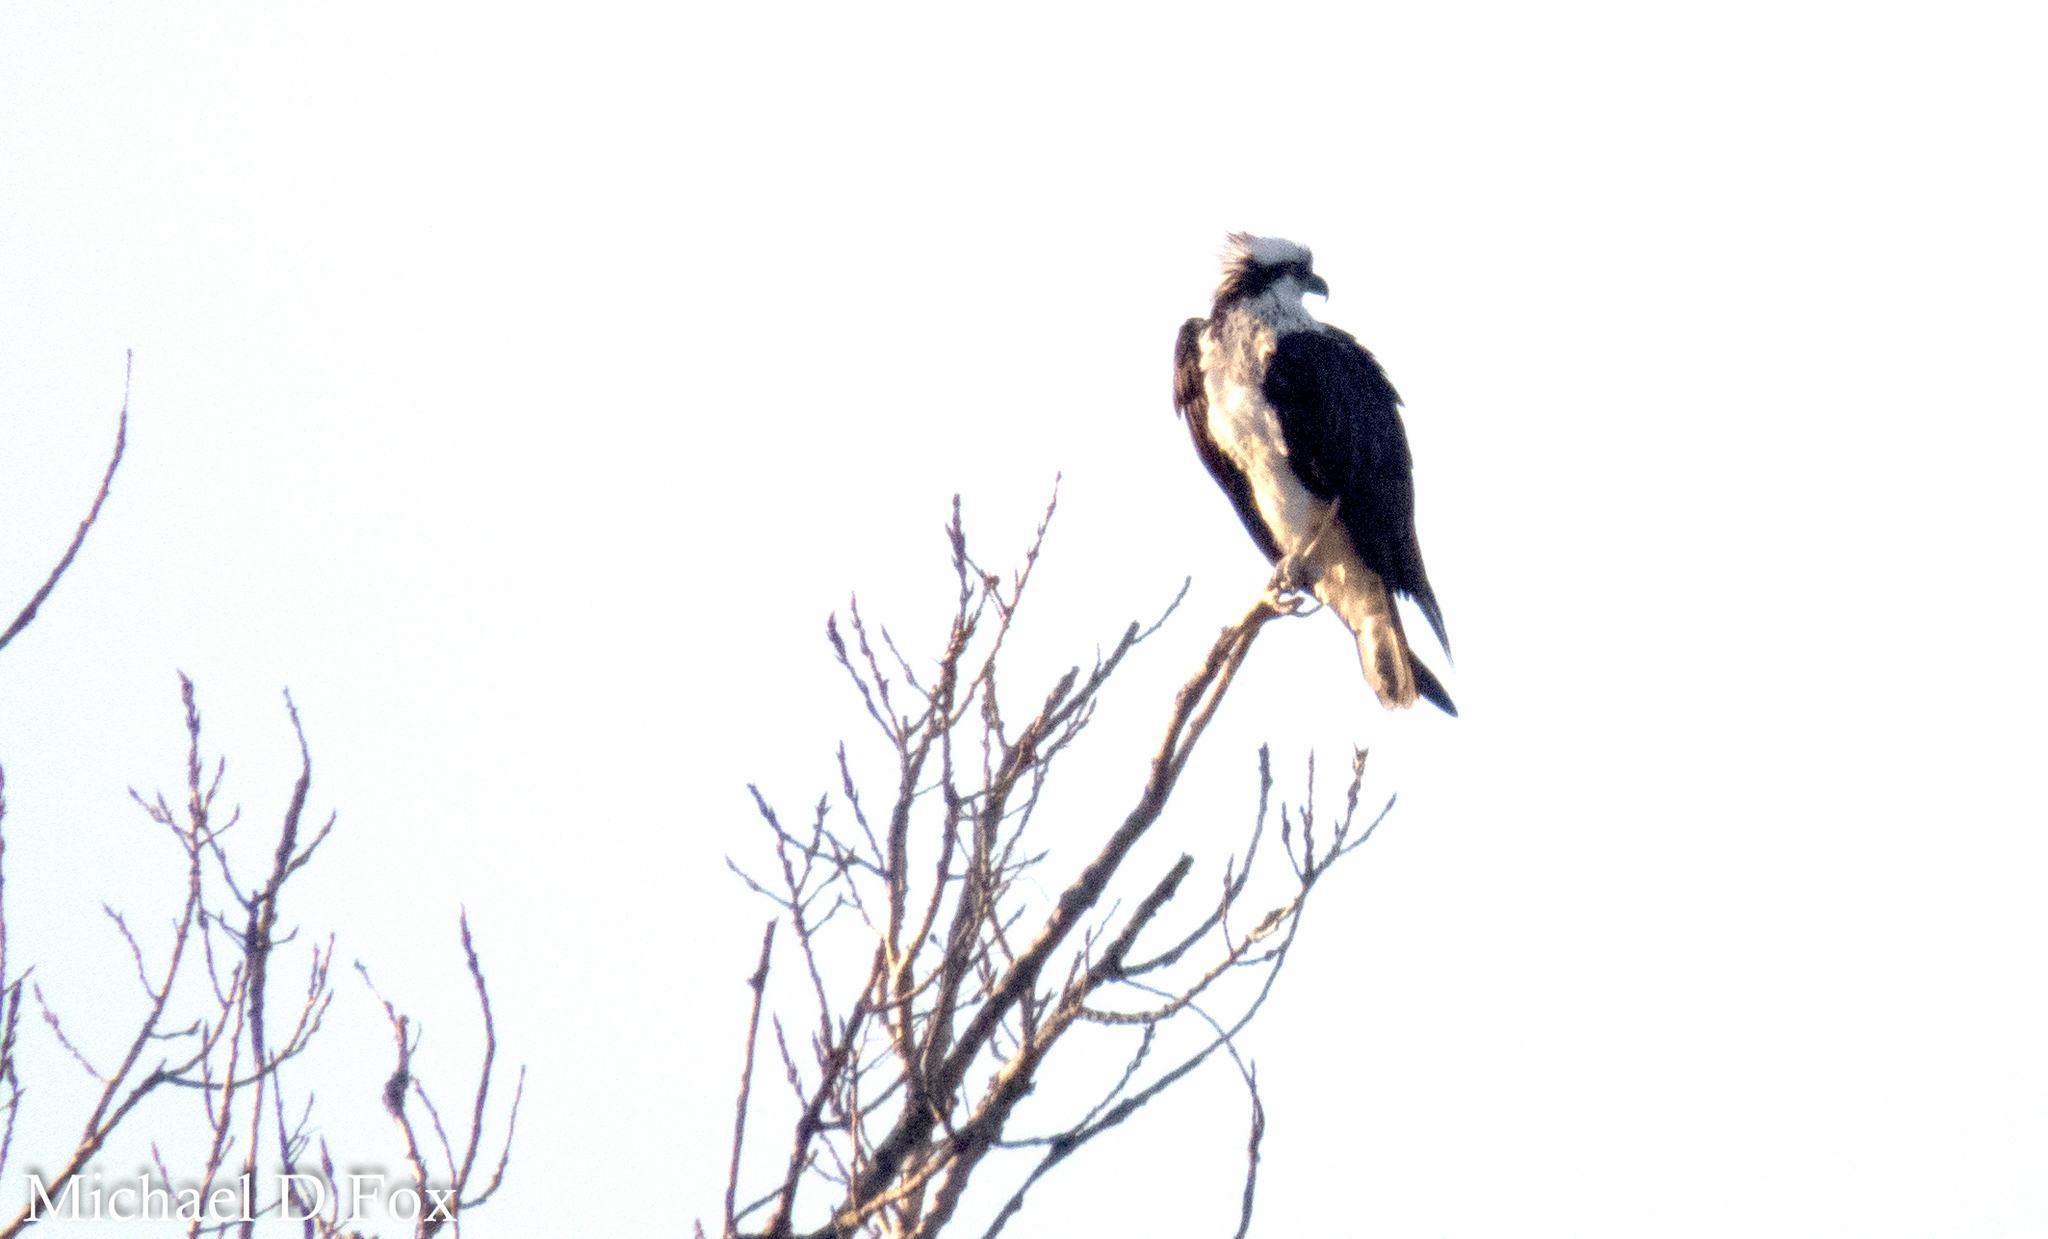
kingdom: Animalia
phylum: Chordata
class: Aves
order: Accipitriformes
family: Pandionidae
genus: Pandion
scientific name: Pandion haliaetus
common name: Osprey
